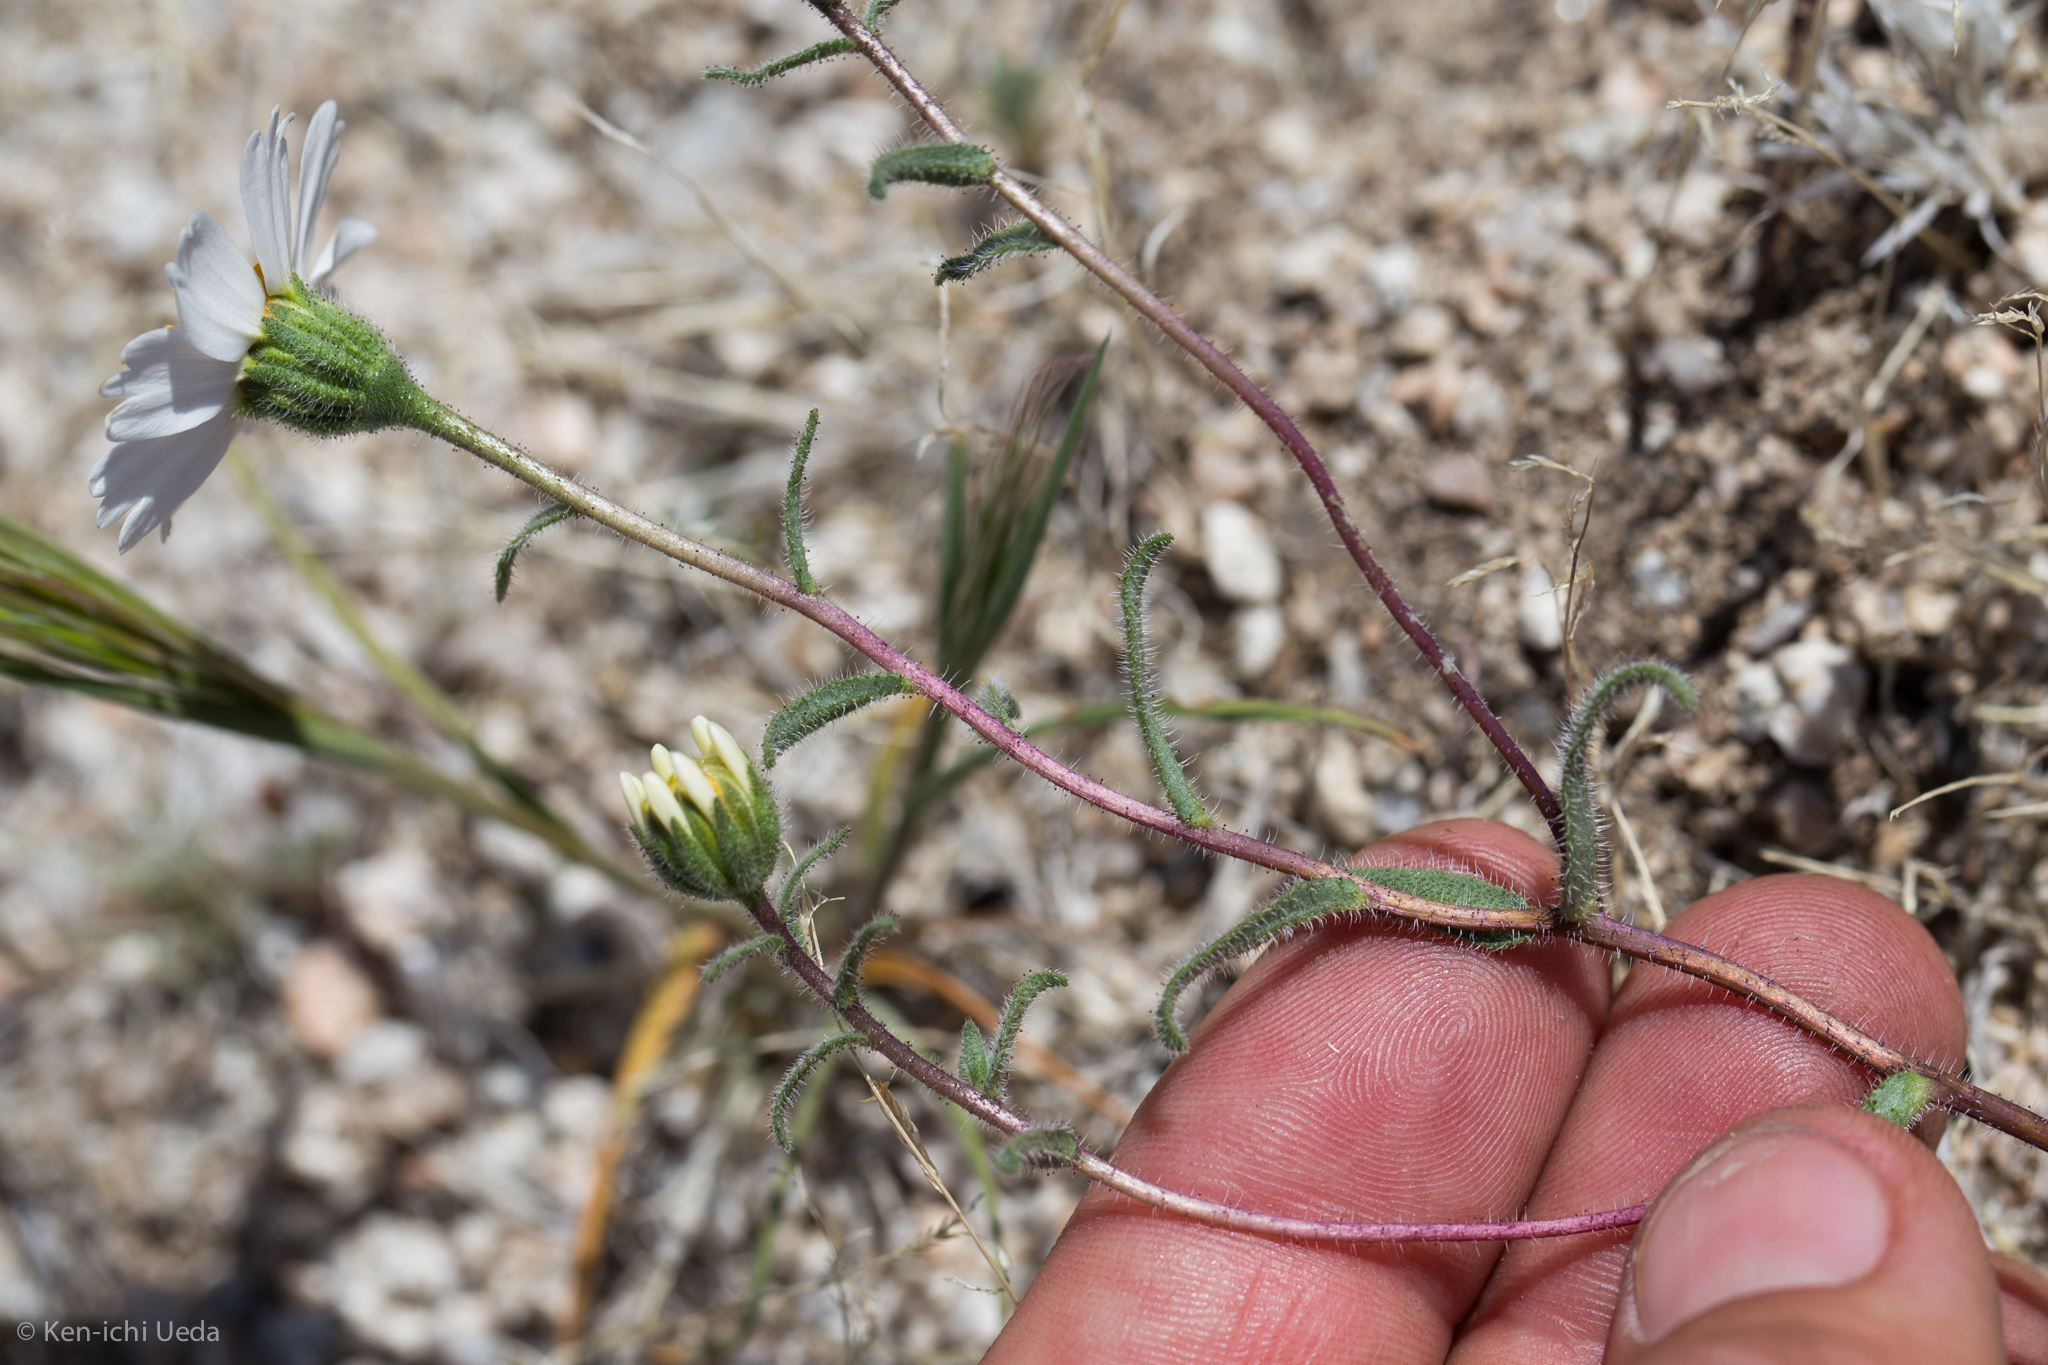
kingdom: Plantae
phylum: Tracheophyta
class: Magnoliopsida
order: Asterales
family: Asteraceae
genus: Layia
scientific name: Layia glandulosa
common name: White layia
